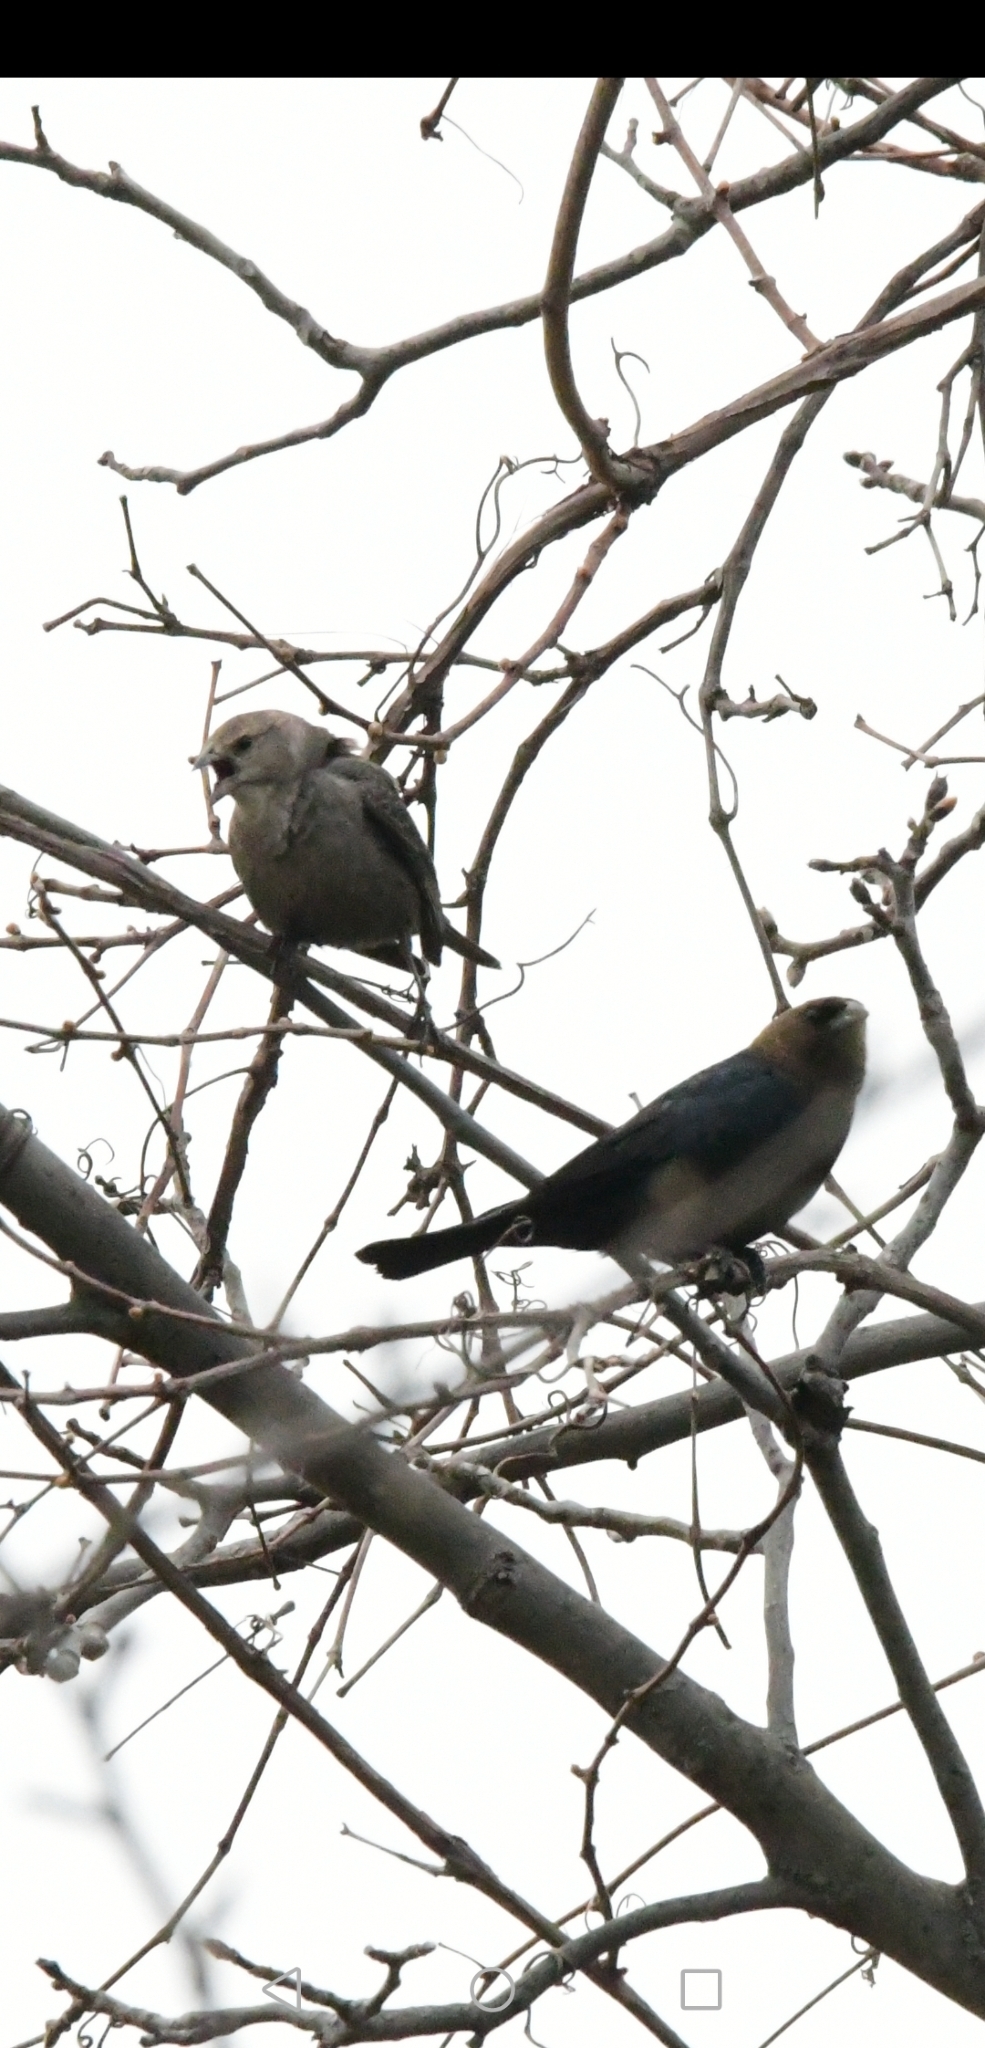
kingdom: Animalia
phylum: Chordata
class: Aves
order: Passeriformes
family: Icteridae
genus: Molothrus
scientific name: Molothrus ater
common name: Brown-headed cowbird
